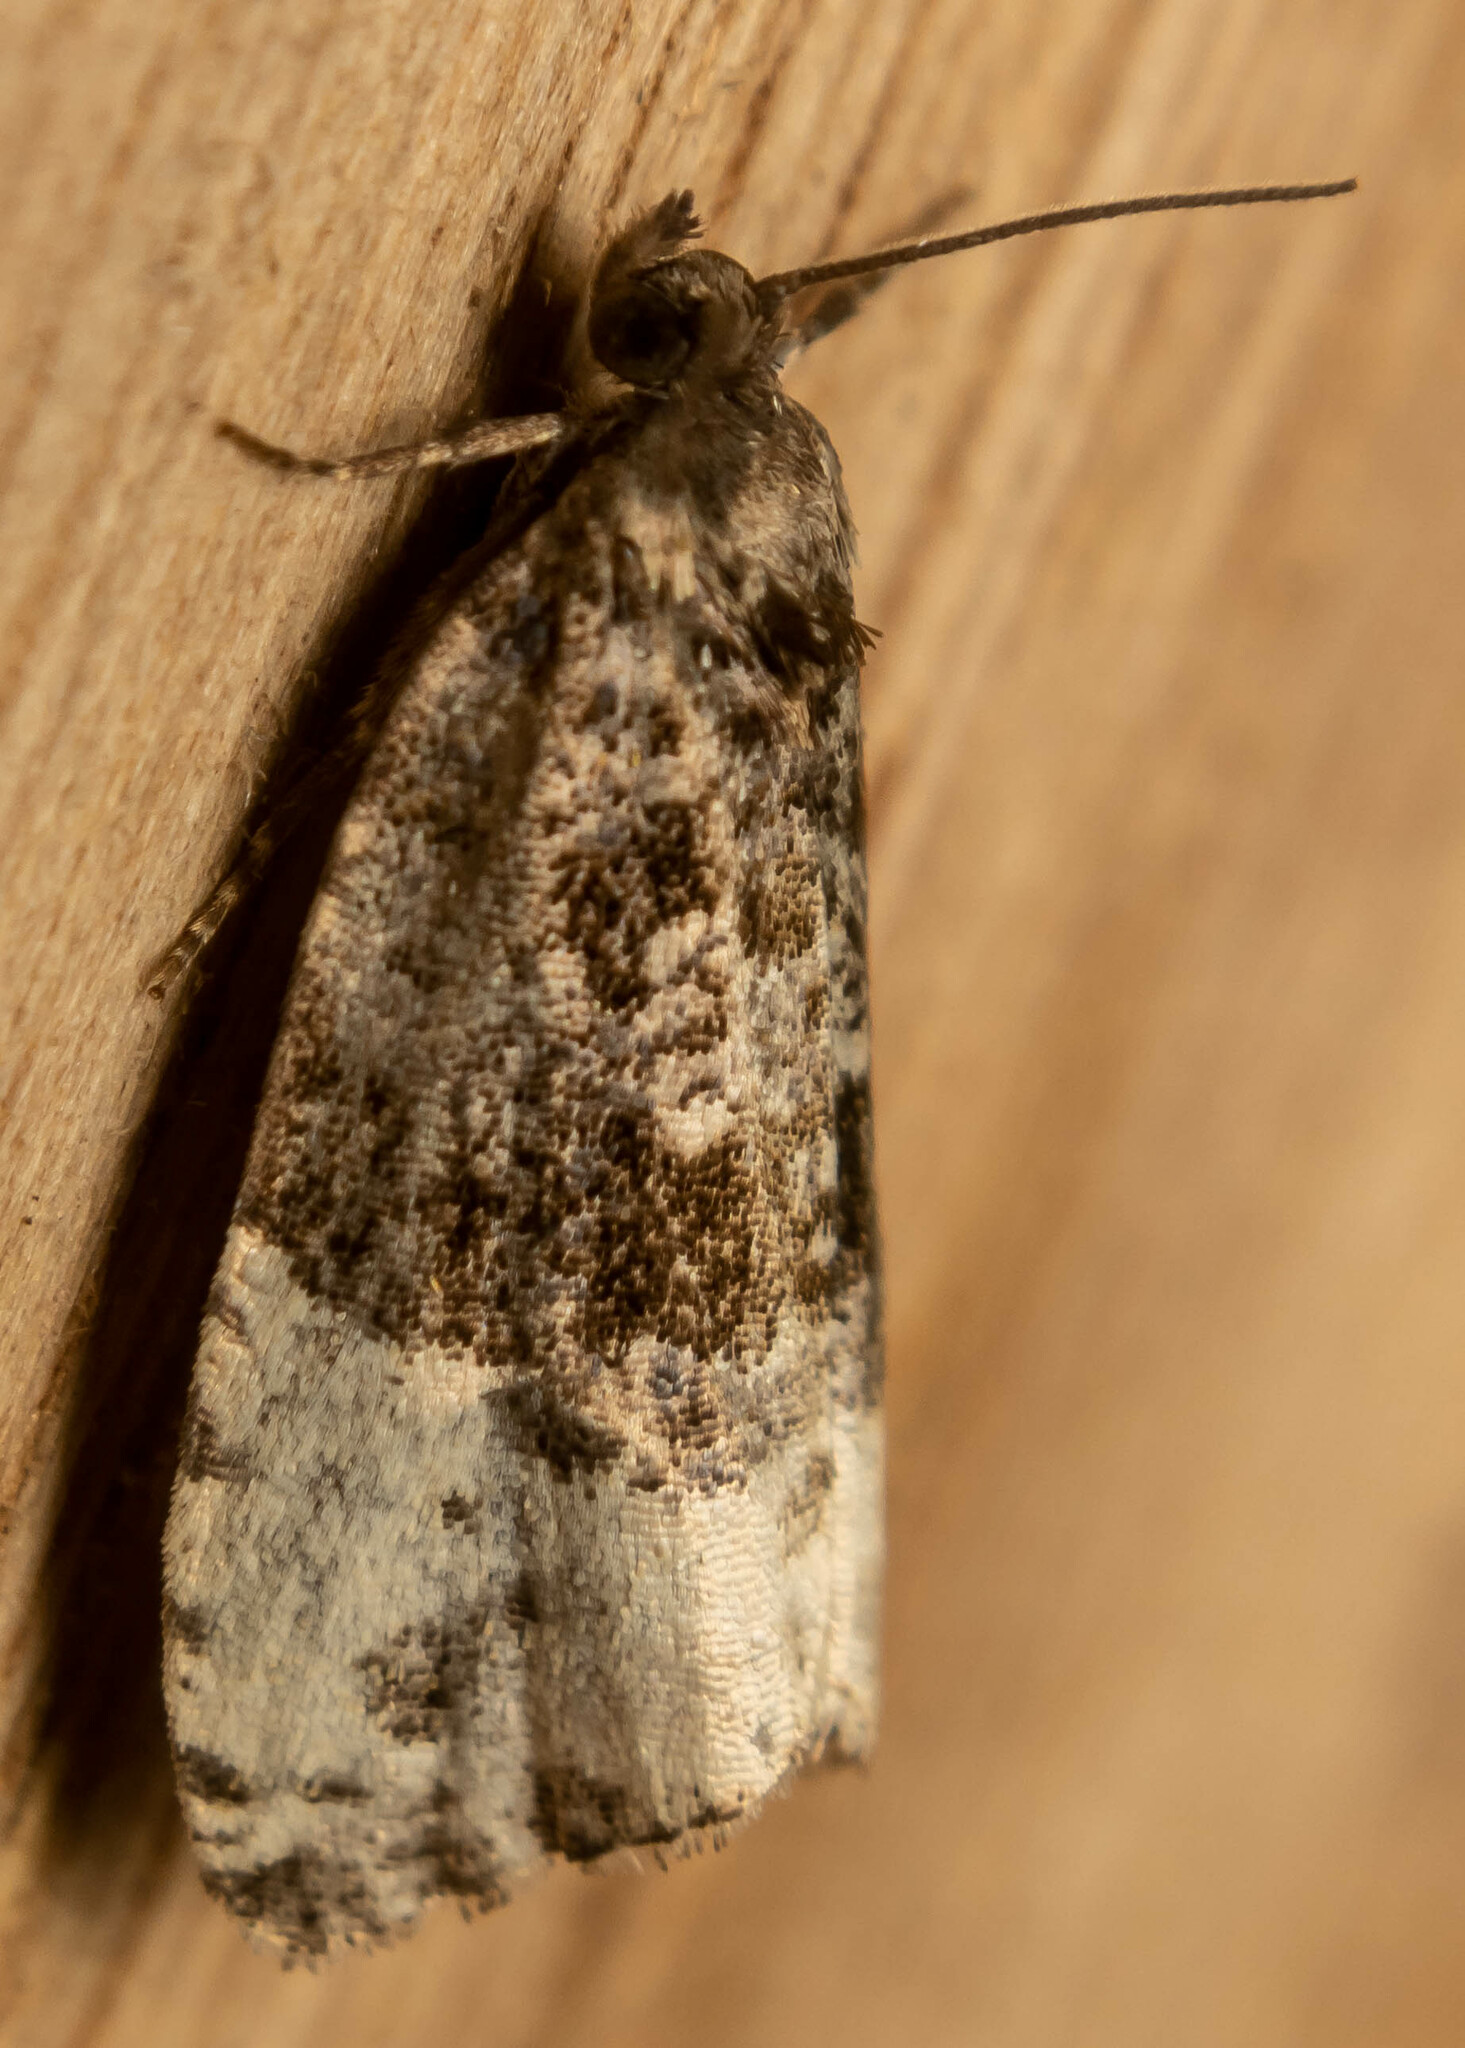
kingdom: Animalia
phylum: Arthropoda
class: Insecta
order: Lepidoptera
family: Tortricidae
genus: Hedya
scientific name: Hedya pruniana
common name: Plum tortrix
